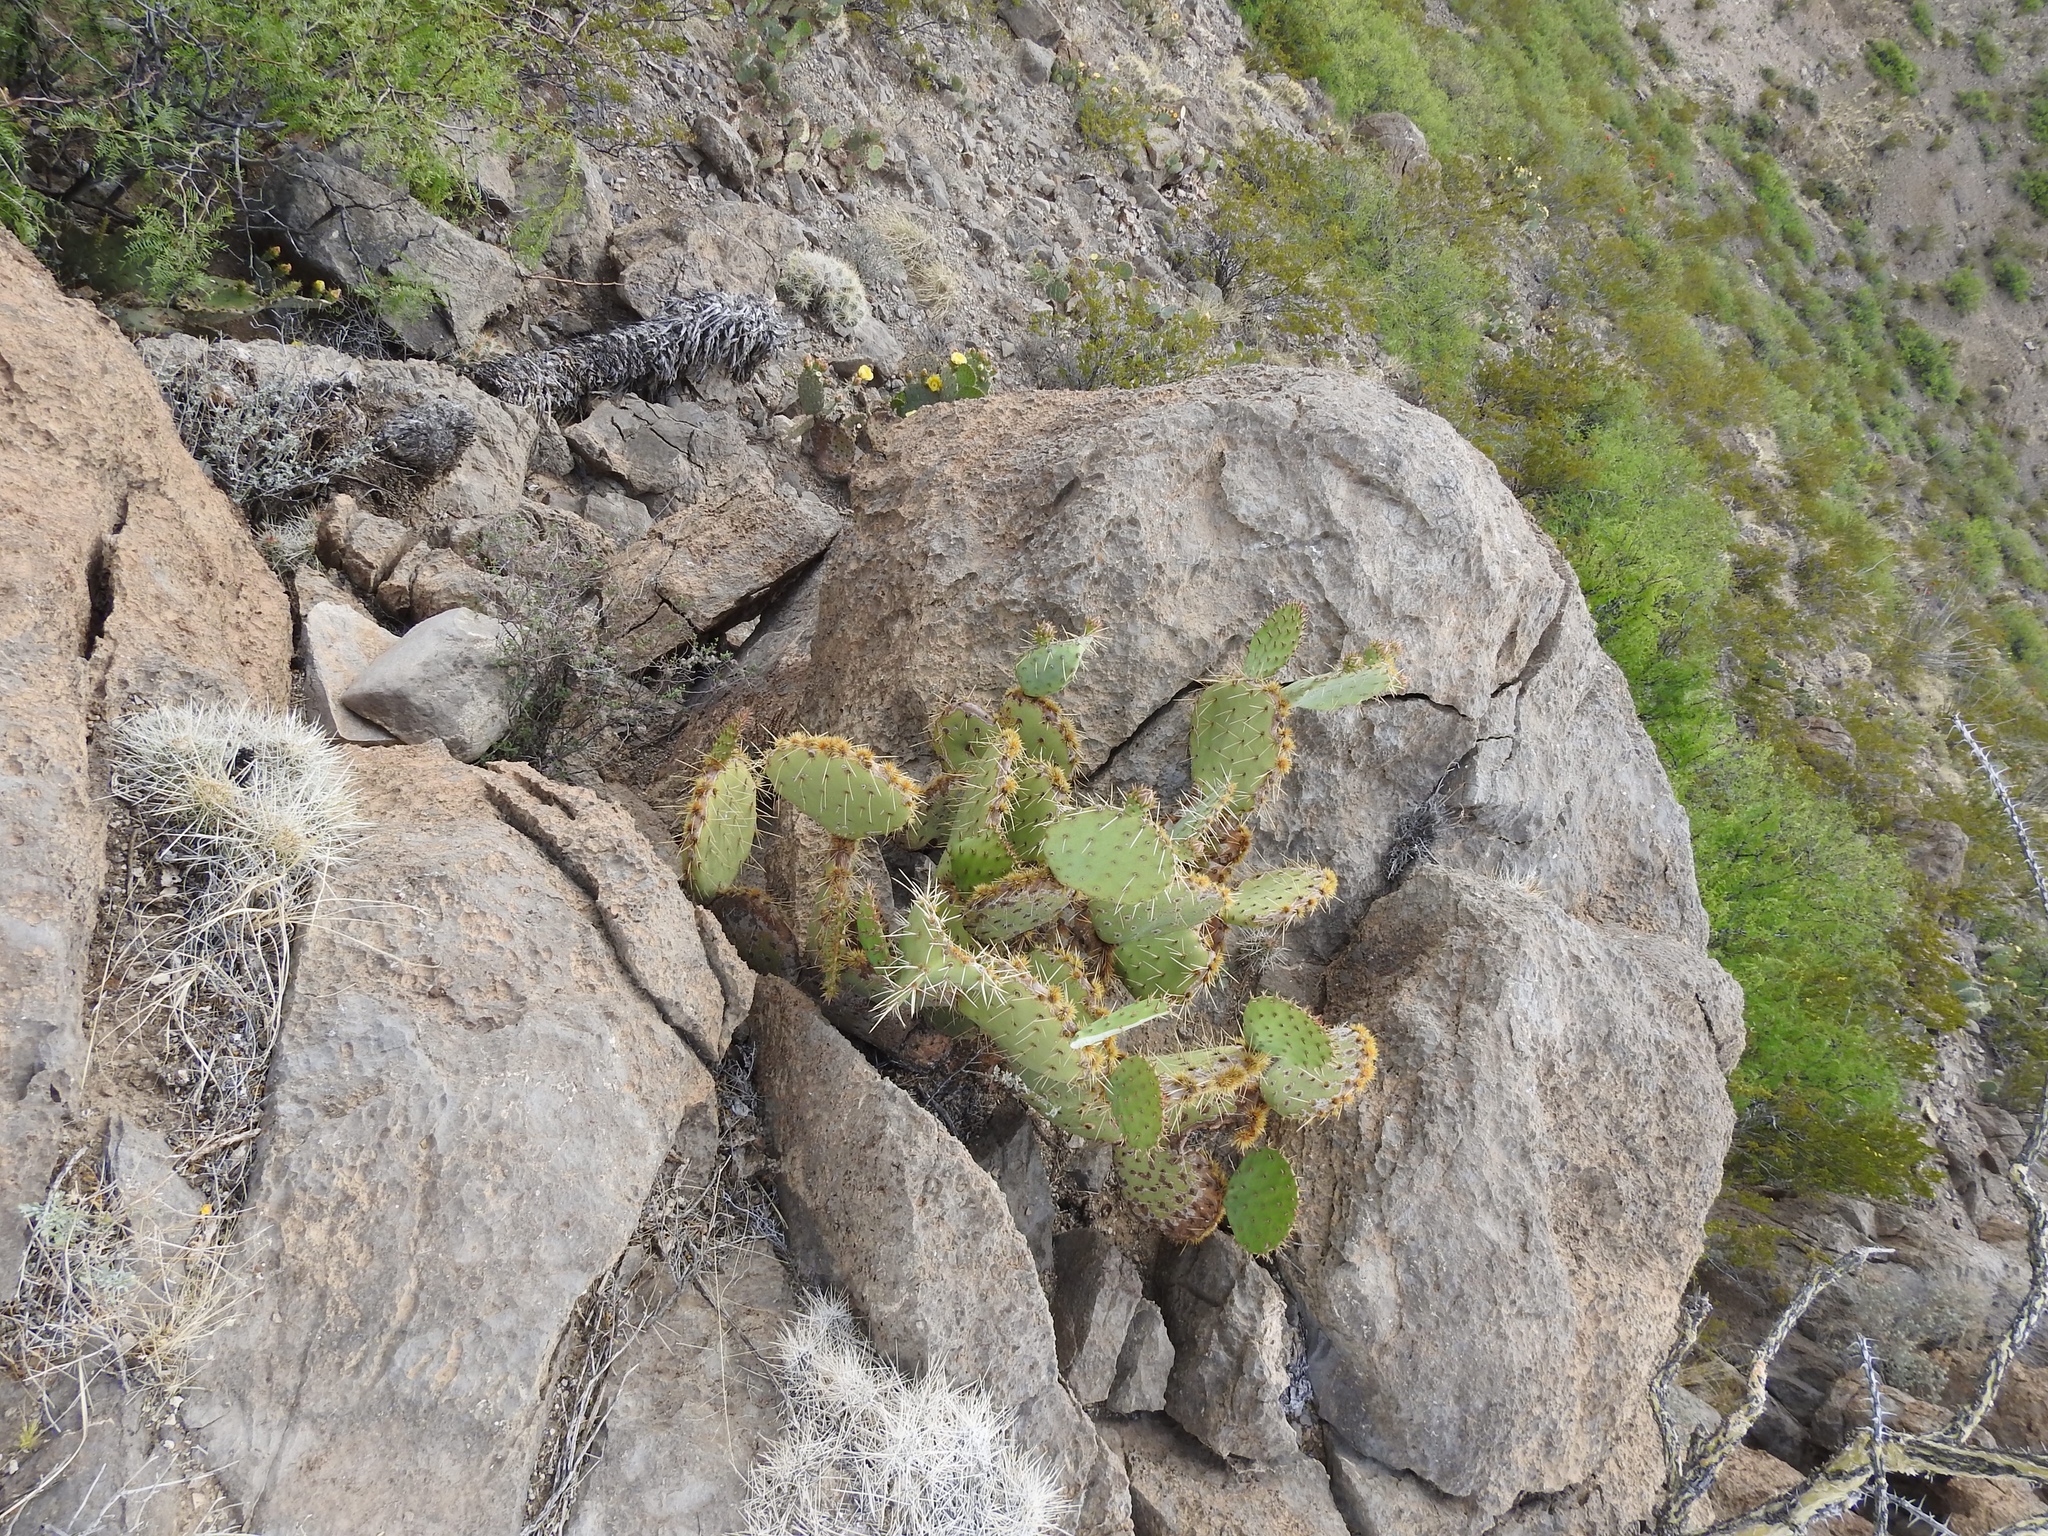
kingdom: Plantae
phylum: Tracheophyta
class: Magnoliopsida
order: Caryophyllales
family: Cactaceae
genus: Opuntia
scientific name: Opuntia phaeacantha
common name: New mexico prickly-pear
